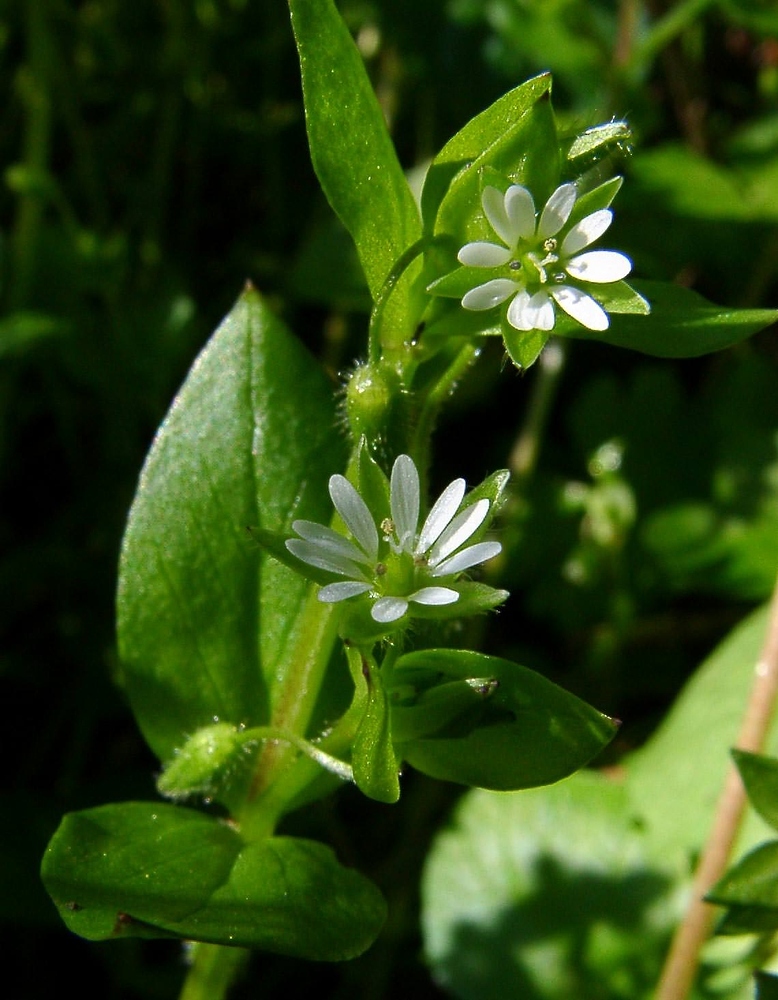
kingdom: Plantae
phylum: Tracheophyta
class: Magnoliopsida
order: Caryophyllales
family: Caryophyllaceae
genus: Stellaria
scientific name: Stellaria media
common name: Common chickweed
